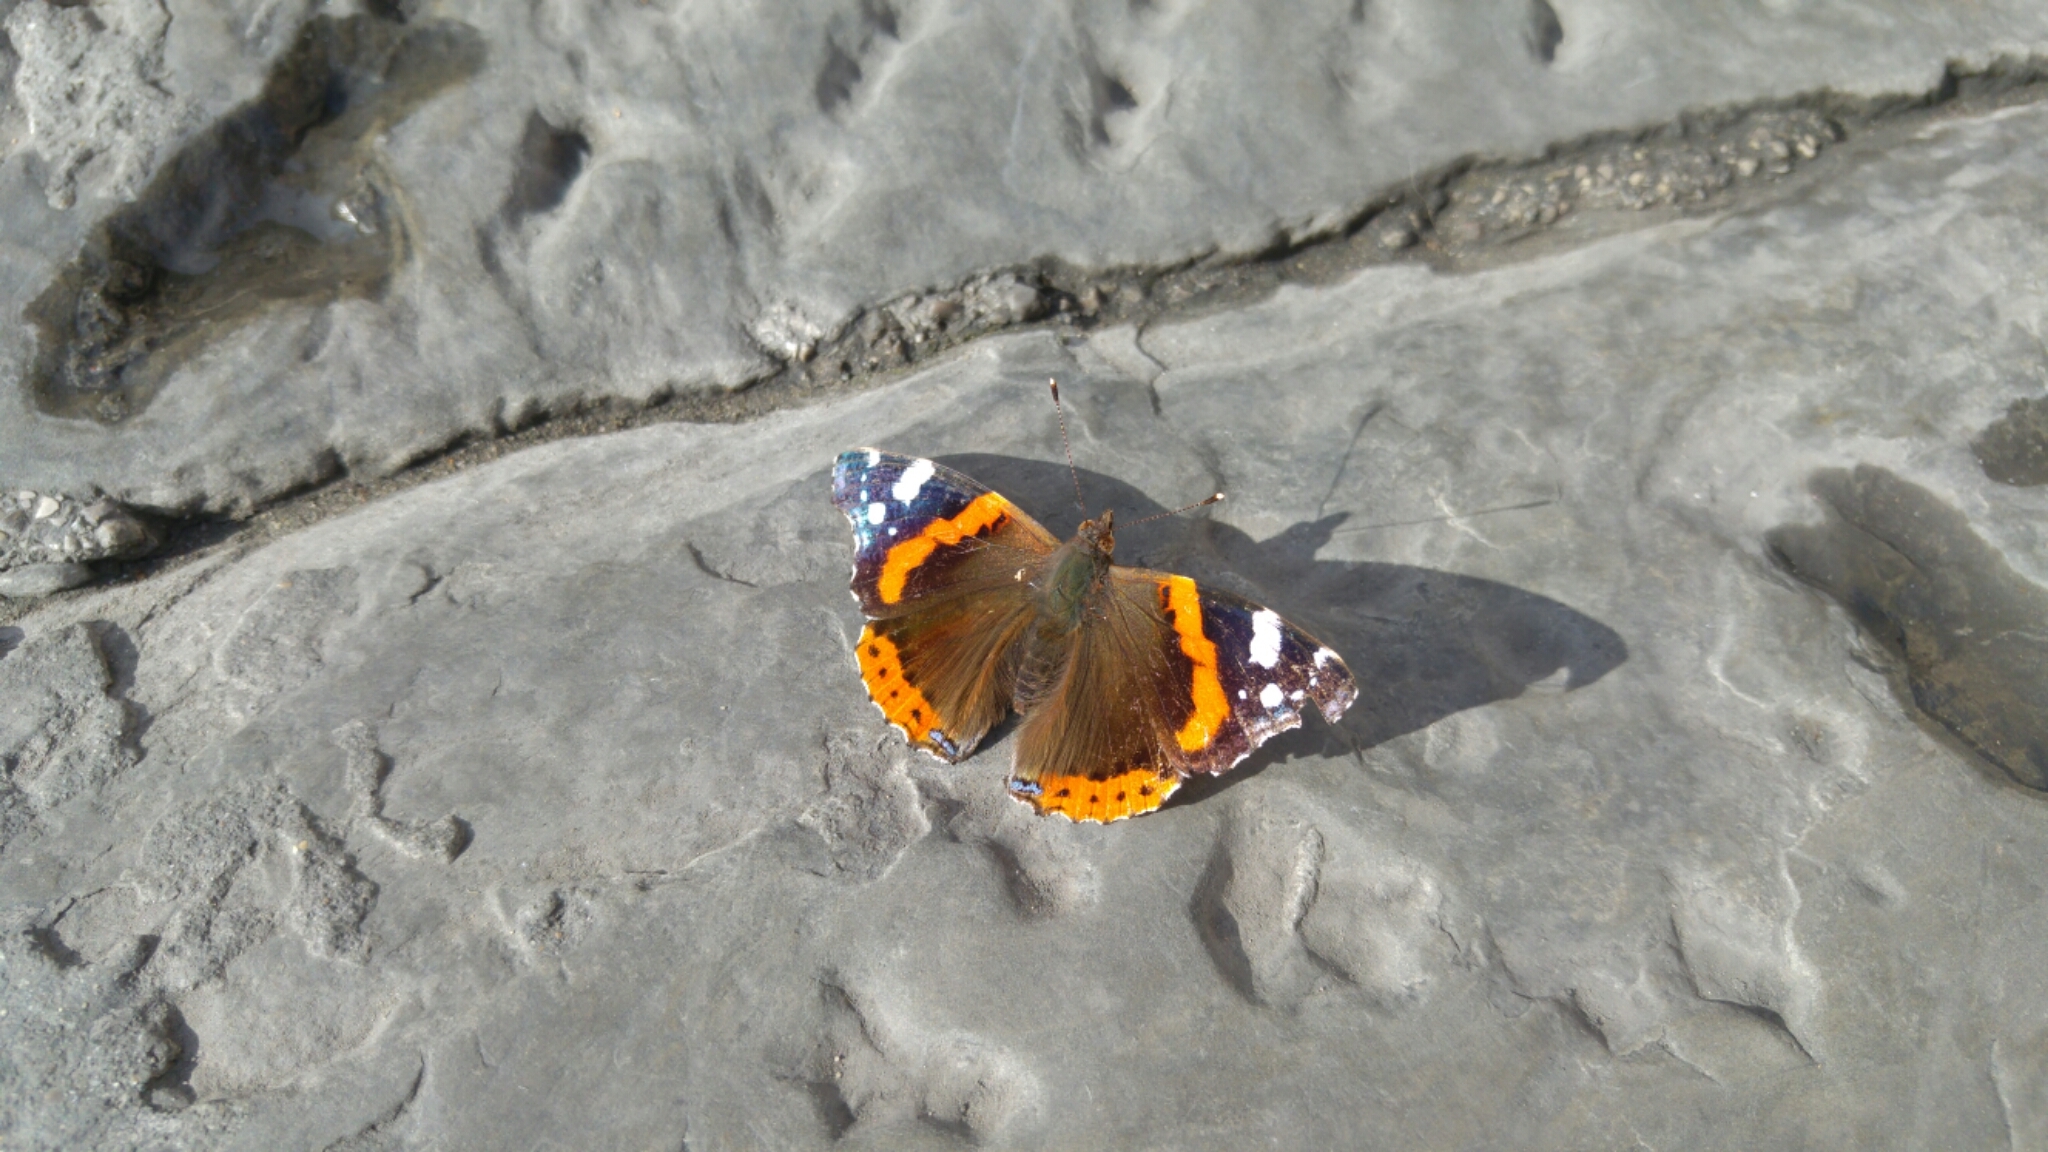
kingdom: Animalia
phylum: Arthropoda
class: Insecta
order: Lepidoptera
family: Nymphalidae
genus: Vanessa
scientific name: Vanessa atalanta
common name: Red admiral
